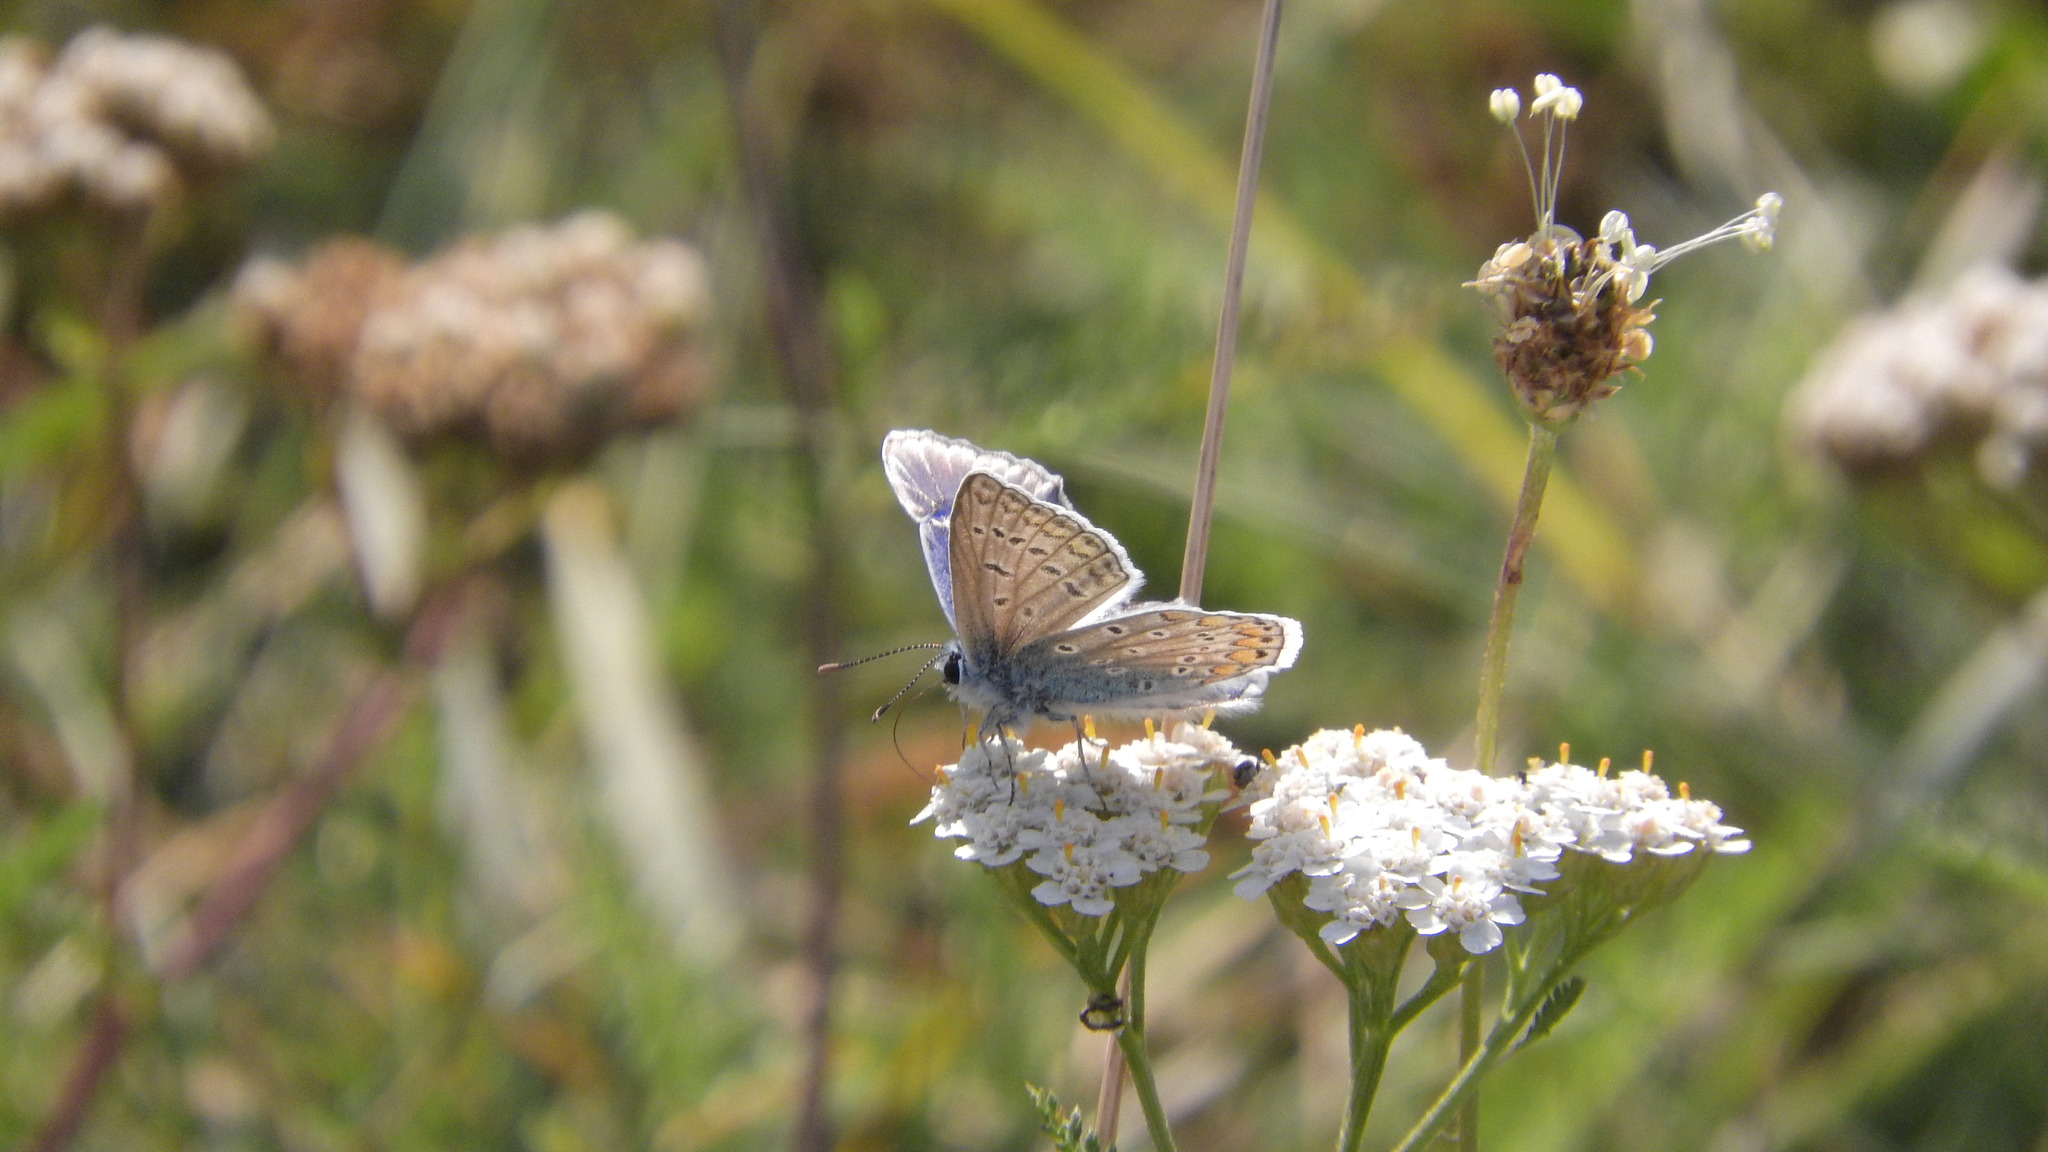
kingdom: Animalia
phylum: Arthropoda
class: Insecta
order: Lepidoptera
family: Lycaenidae
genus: Polyommatus
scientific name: Polyommatus icarus
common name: Common blue
